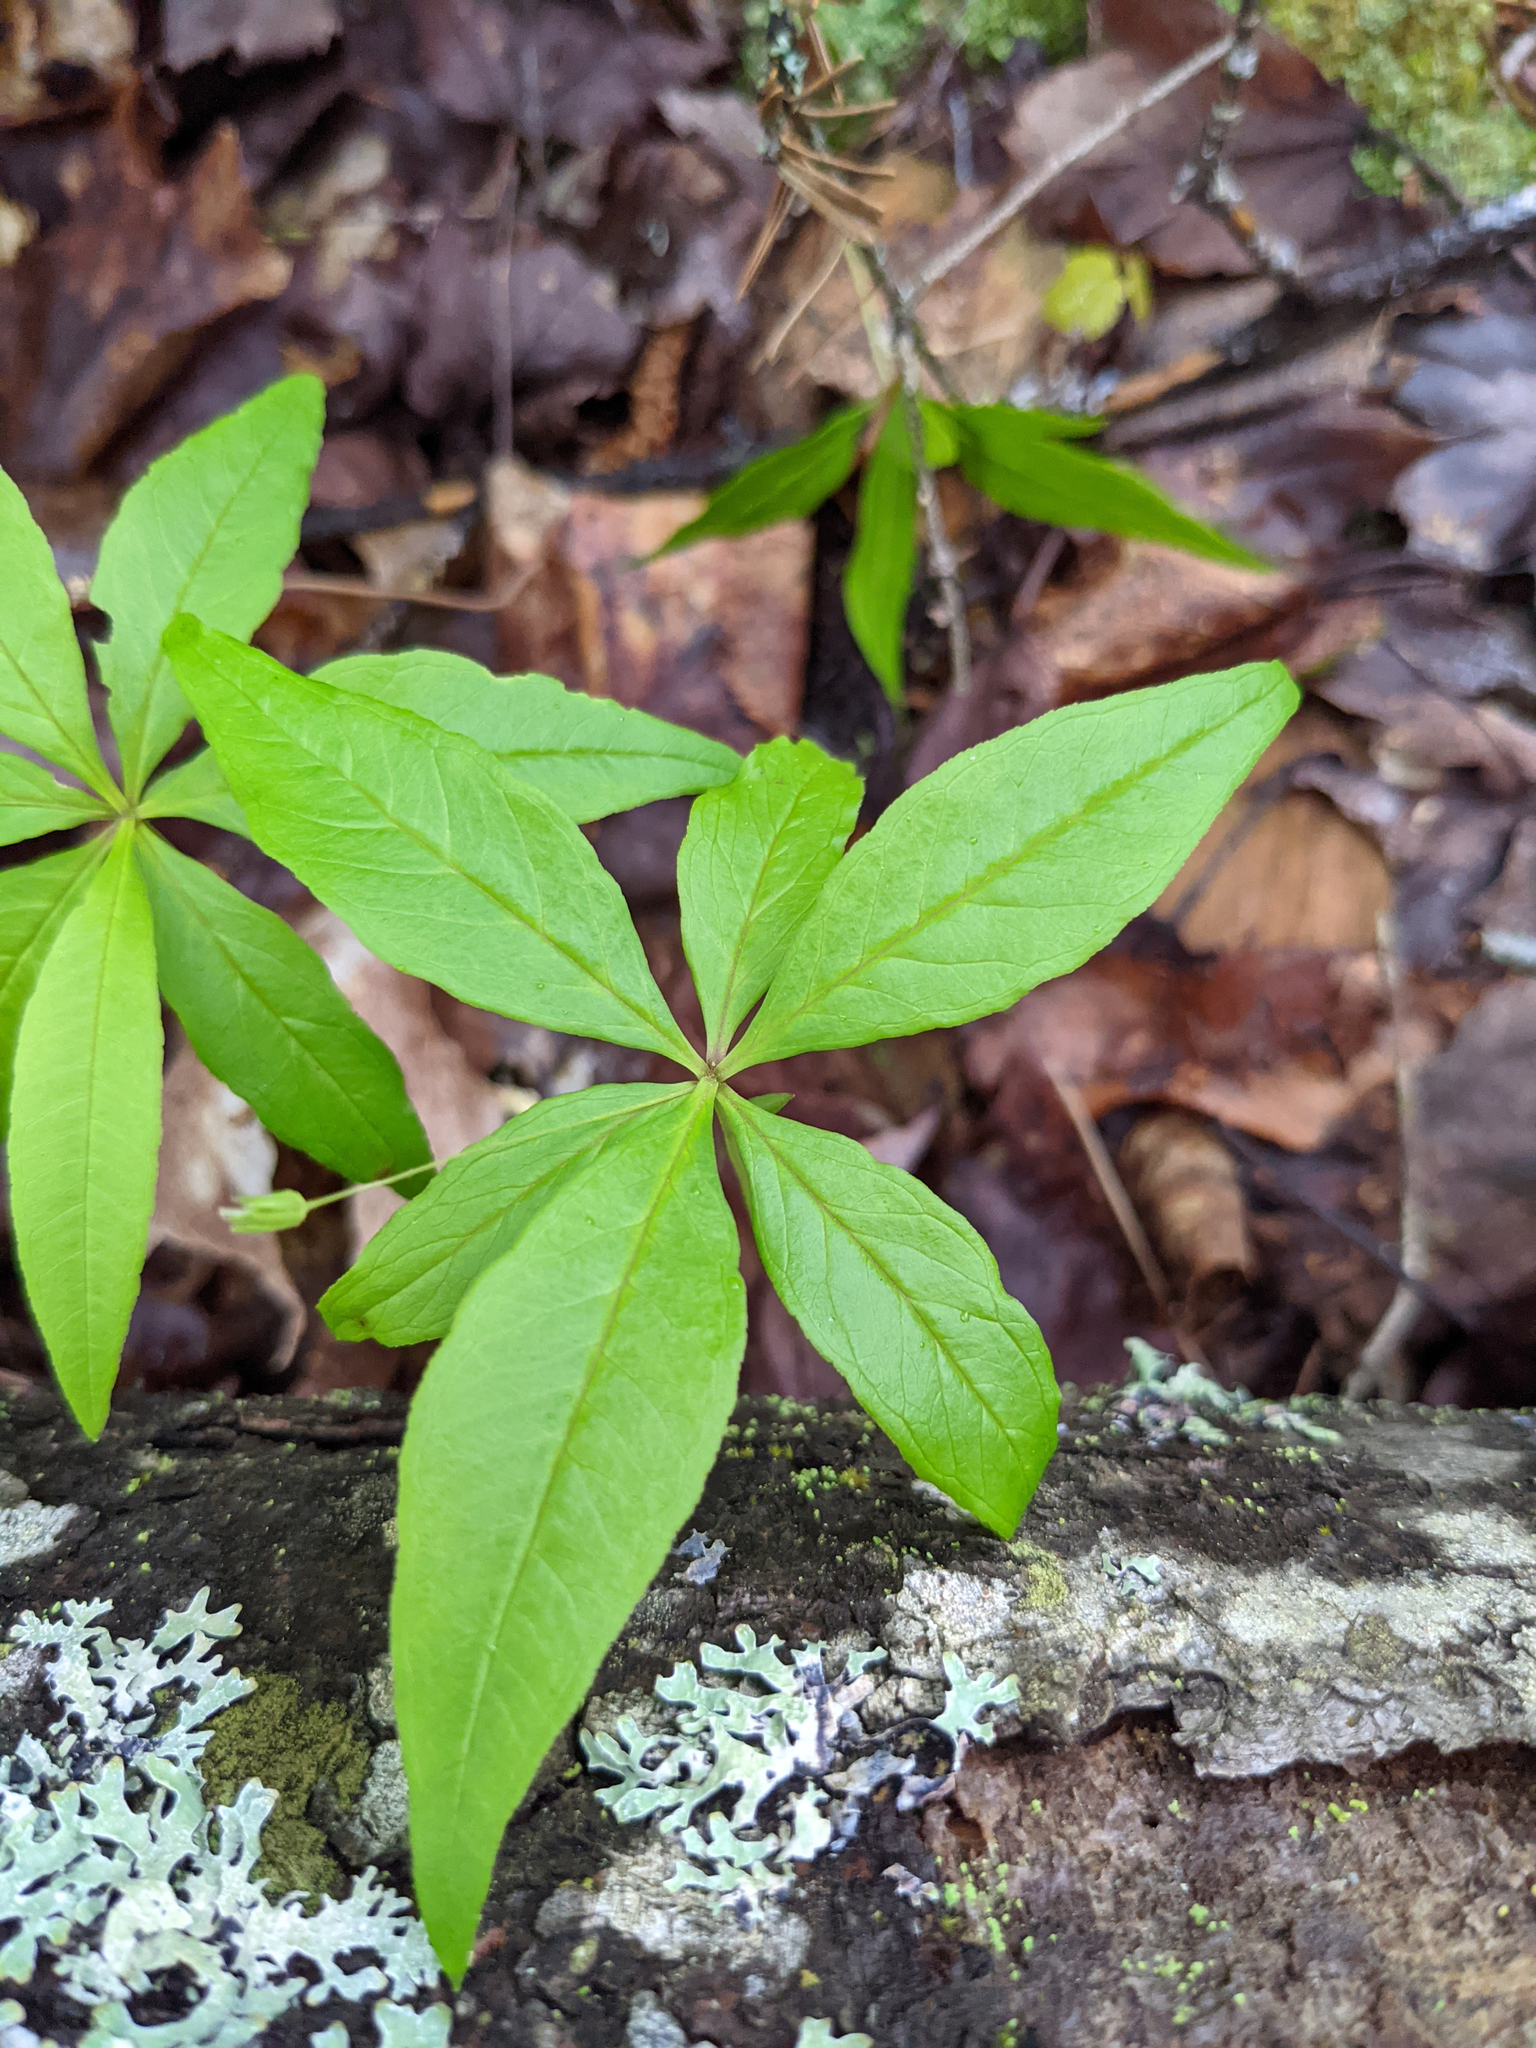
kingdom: Plantae
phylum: Tracheophyta
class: Magnoliopsida
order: Ericales
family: Primulaceae
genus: Lysimachia
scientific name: Lysimachia borealis
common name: American starflower
